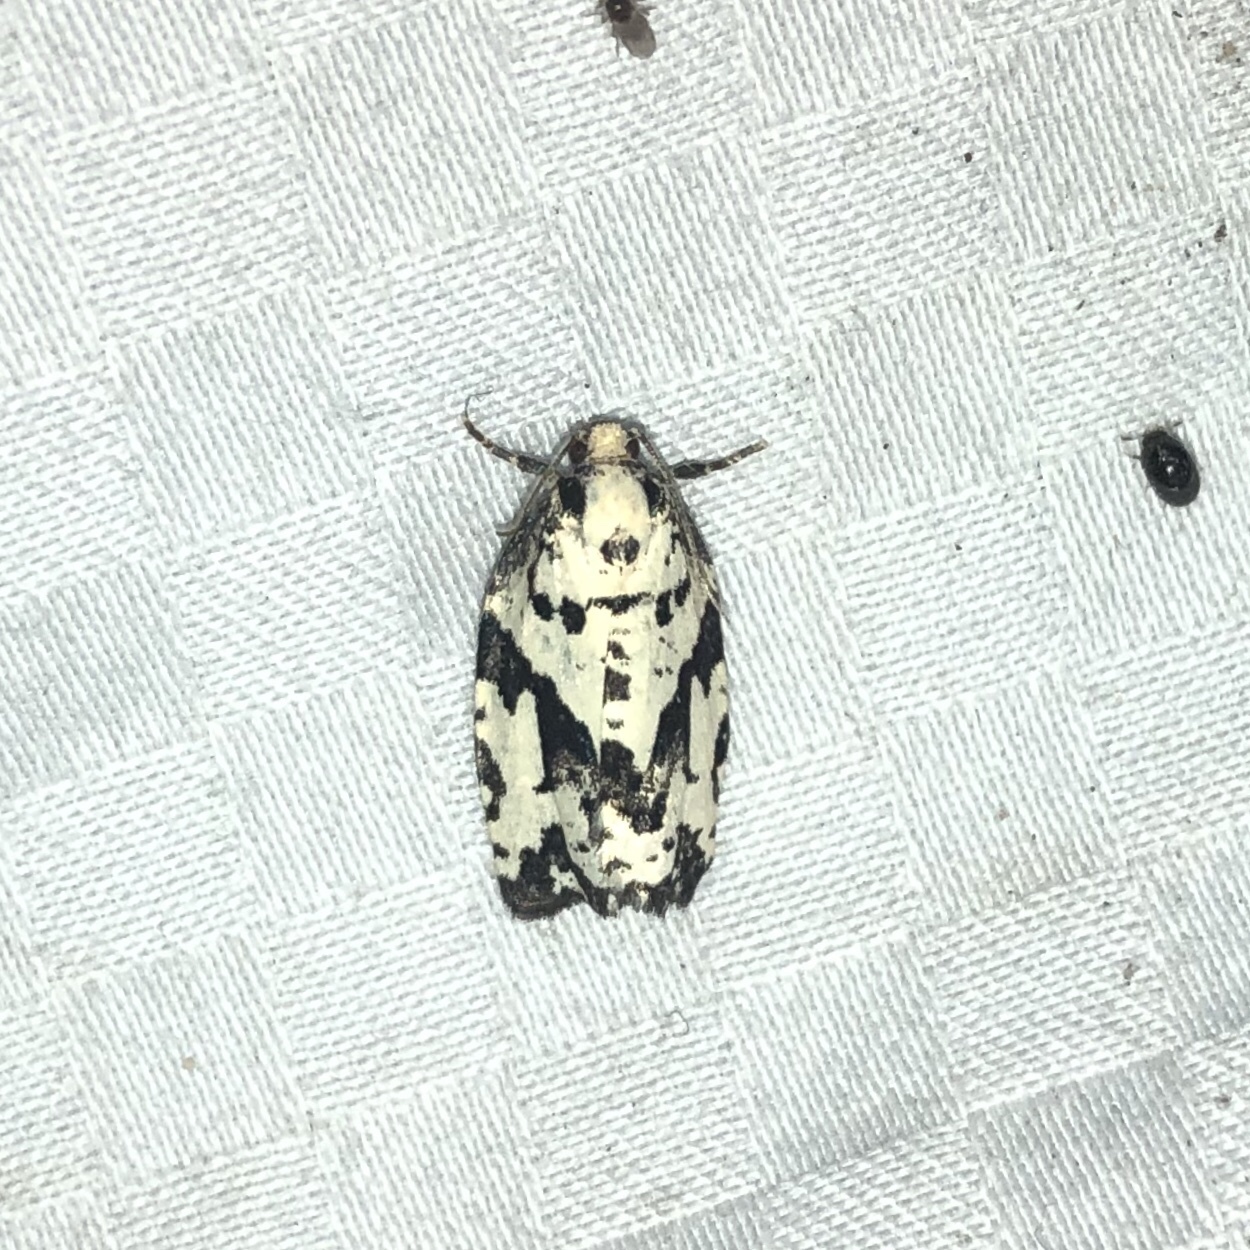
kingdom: Animalia
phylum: Arthropoda
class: Insecta
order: Lepidoptera
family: Tortricidae
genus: Archips
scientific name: Archips dissitana
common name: Boldly-marked archips moth
